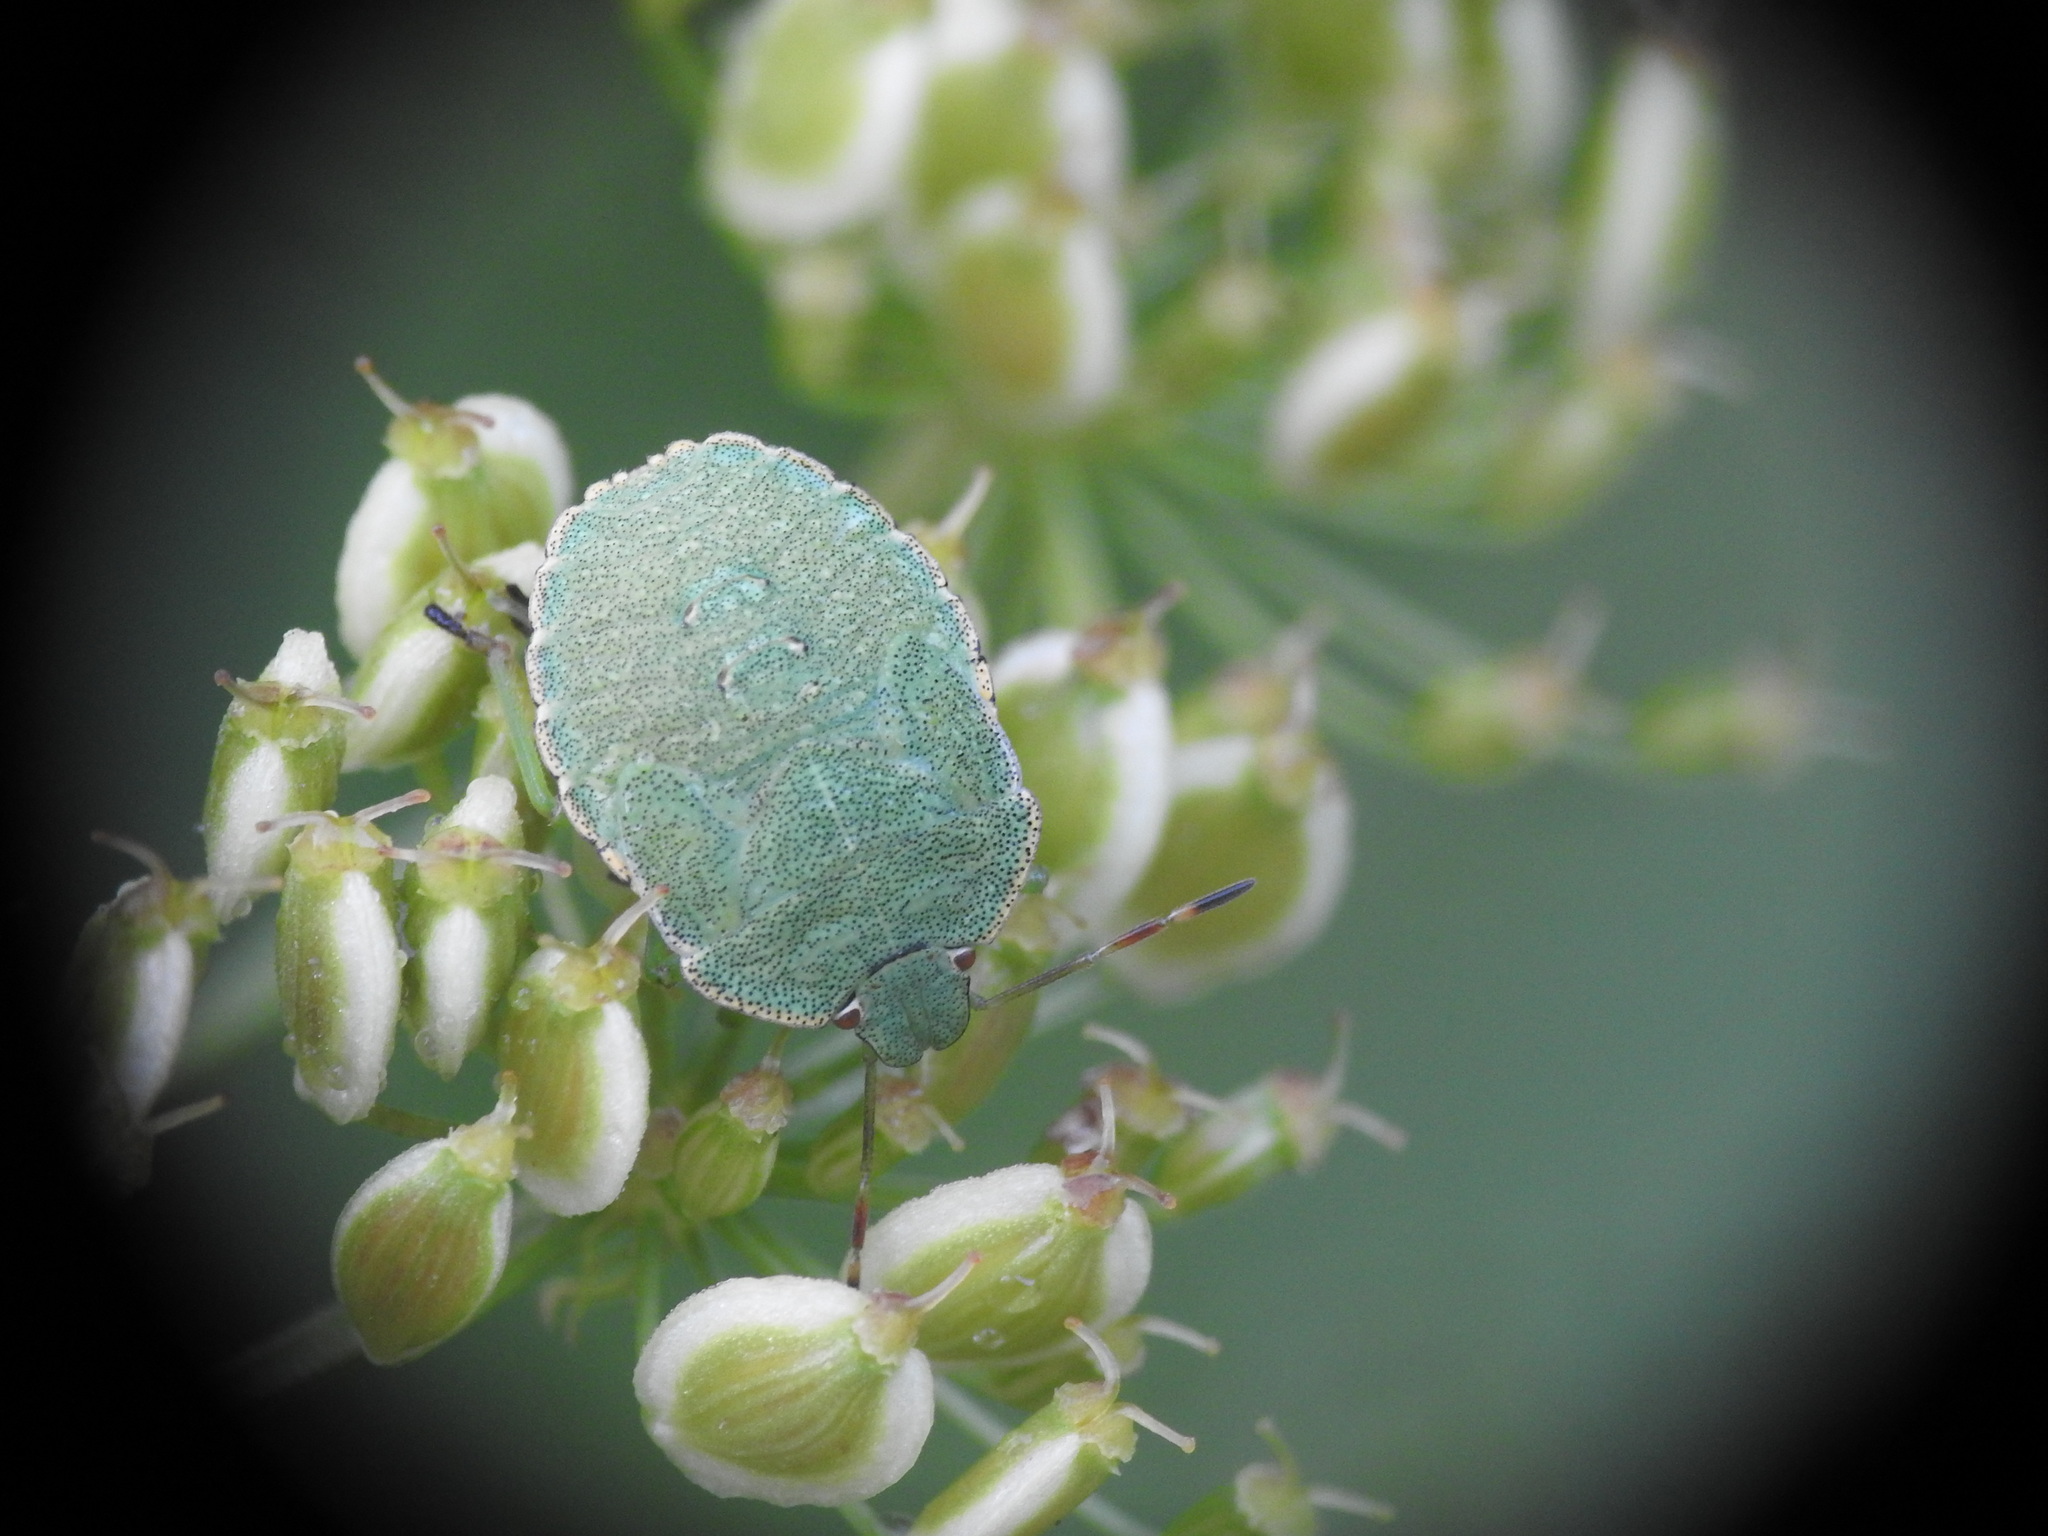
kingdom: Animalia
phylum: Arthropoda
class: Insecta
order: Hemiptera
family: Pentatomidae
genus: Palomena
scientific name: Palomena prasina
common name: Green shieldbug
